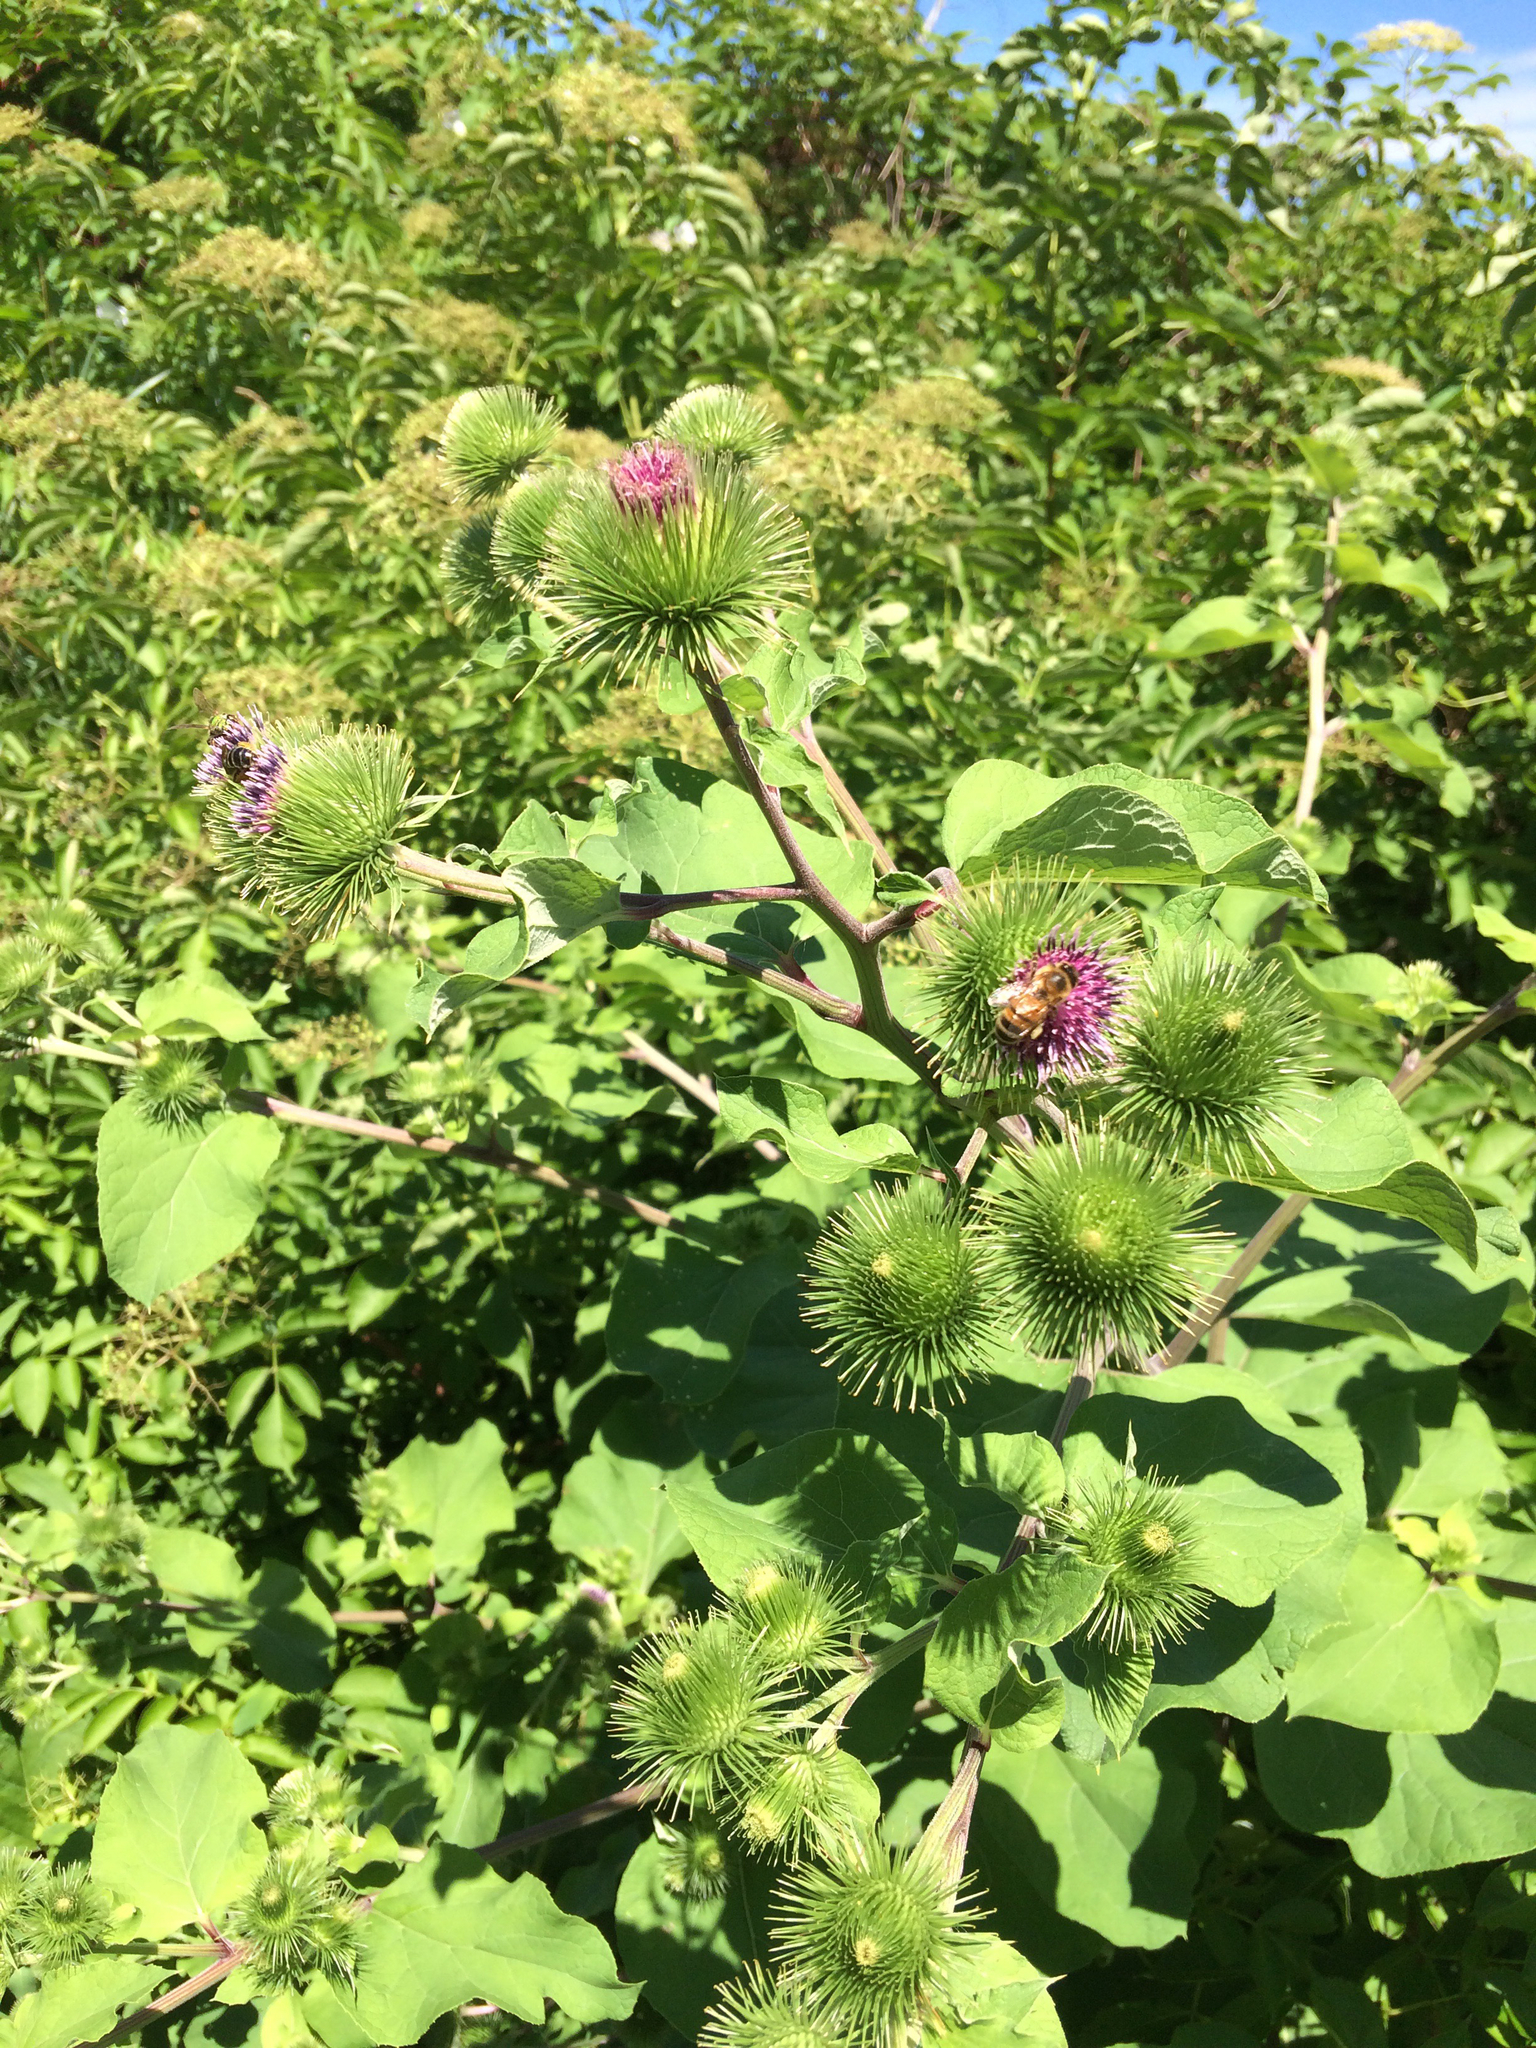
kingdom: Plantae
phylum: Tracheophyta
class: Magnoliopsida
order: Asterales
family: Asteraceae
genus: Arctium
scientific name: Arctium lappa
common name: Greater burdock
